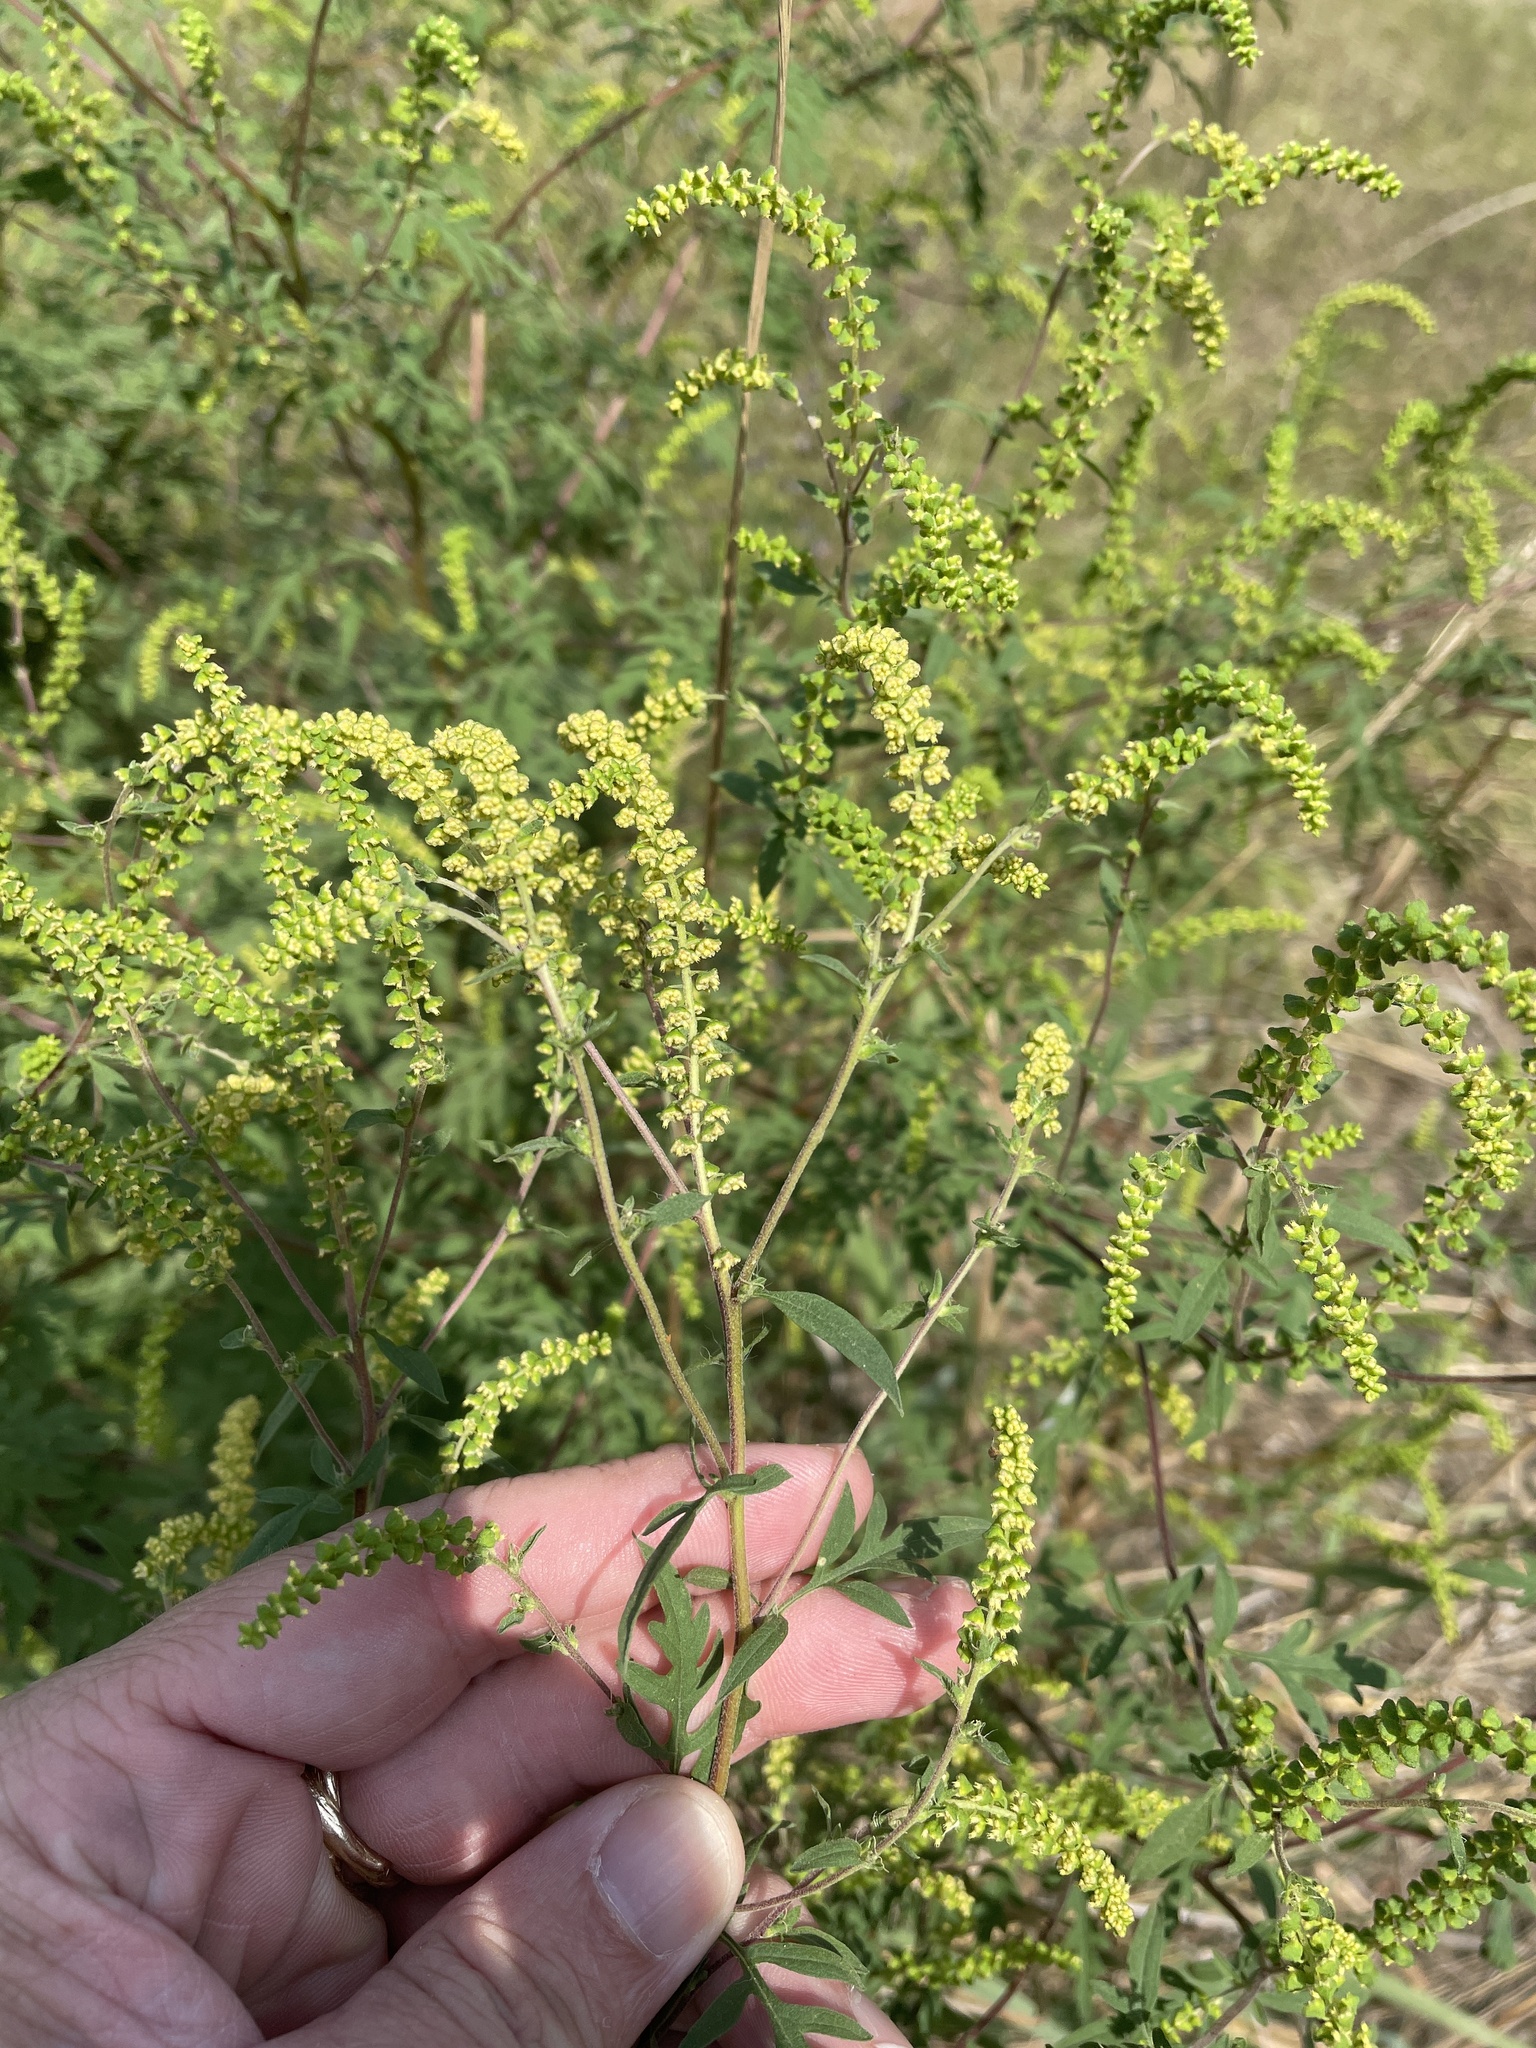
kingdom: Plantae
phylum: Tracheophyta
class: Magnoliopsida
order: Asterales
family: Asteraceae
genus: Ambrosia
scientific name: Ambrosia artemisiifolia
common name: Annual ragweed
